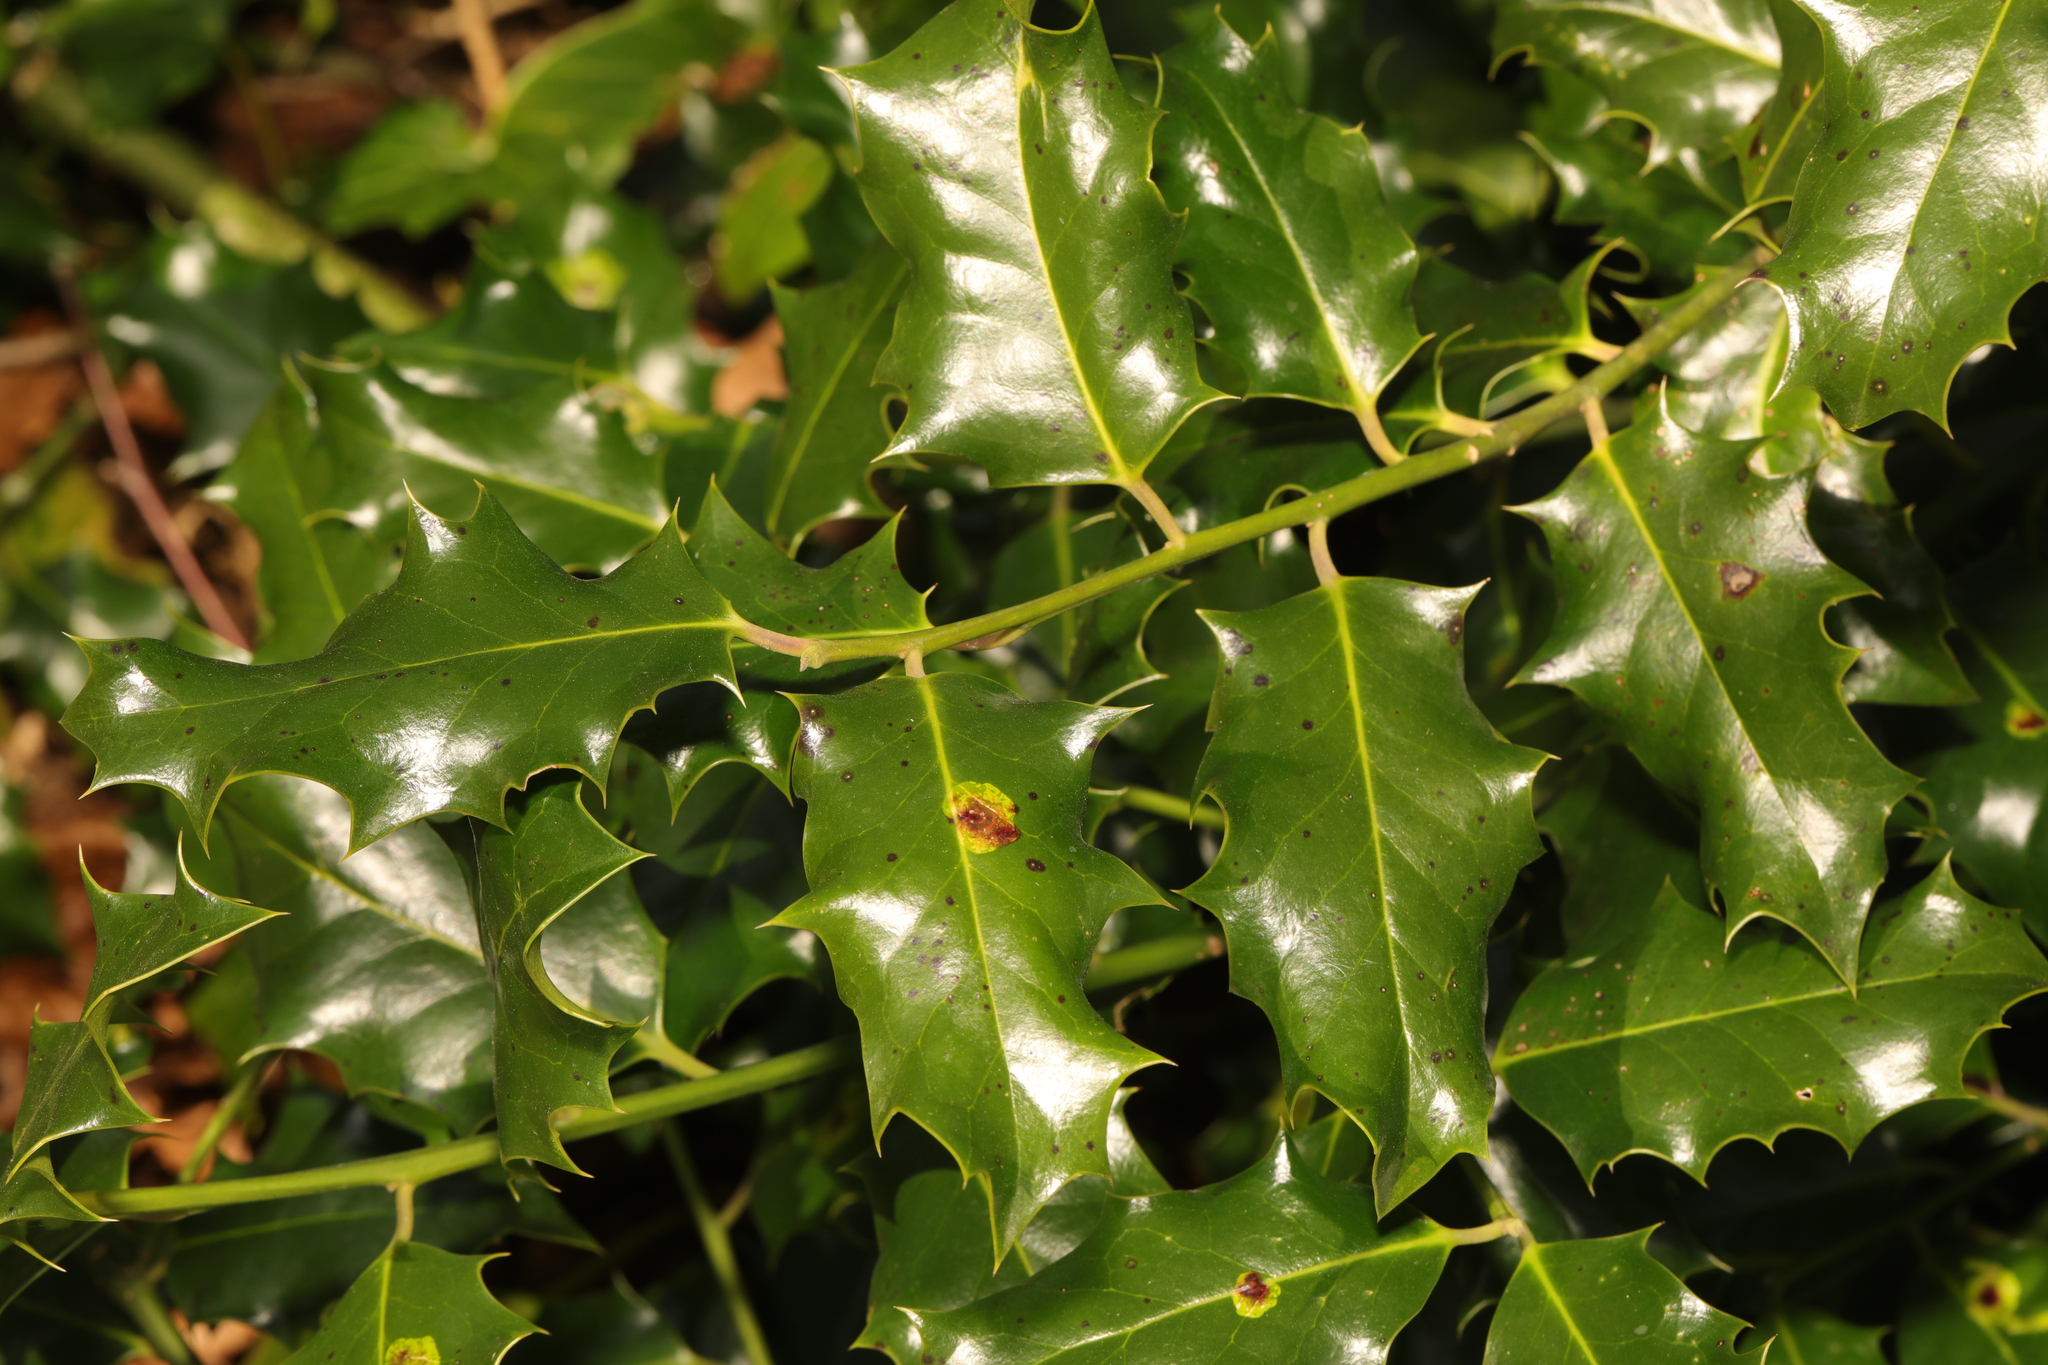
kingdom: Plantae
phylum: Tracheophyta
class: Magnoliopsida
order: Aquifoliales
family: Aquifoliaceae
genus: Ilex
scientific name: Ilex aquifolium
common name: English holly
